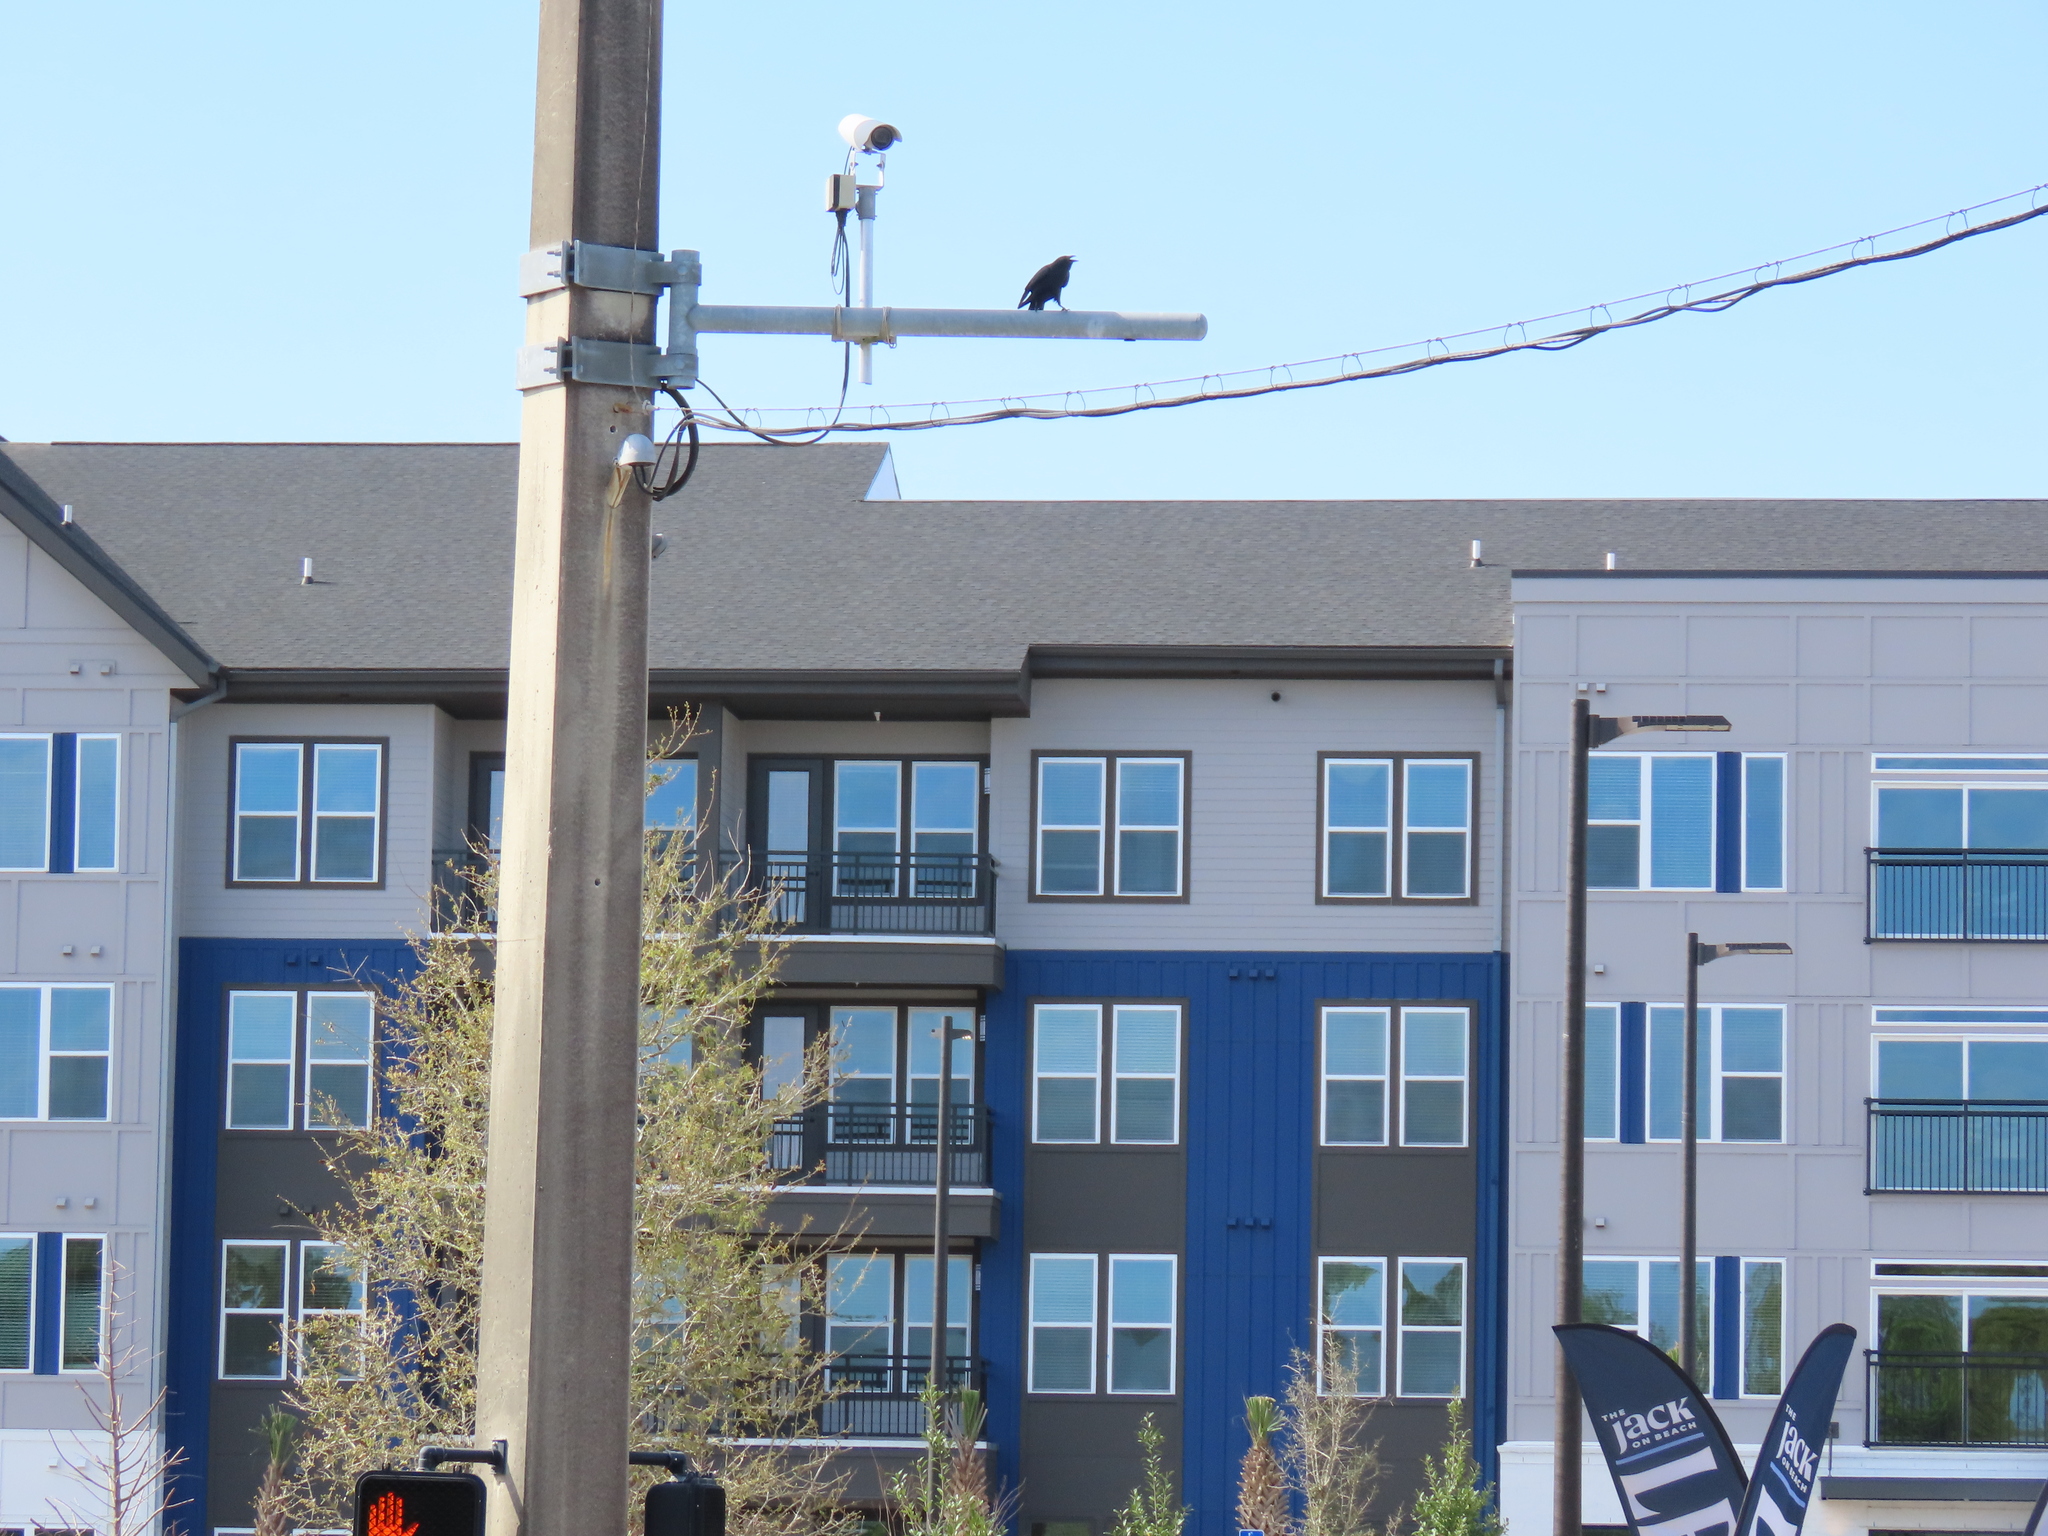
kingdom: Animalia
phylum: Chordata
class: Aves
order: Passeriformes
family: Corvidae
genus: Corvus
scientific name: Corvus brachyrhynchos
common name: American crow
